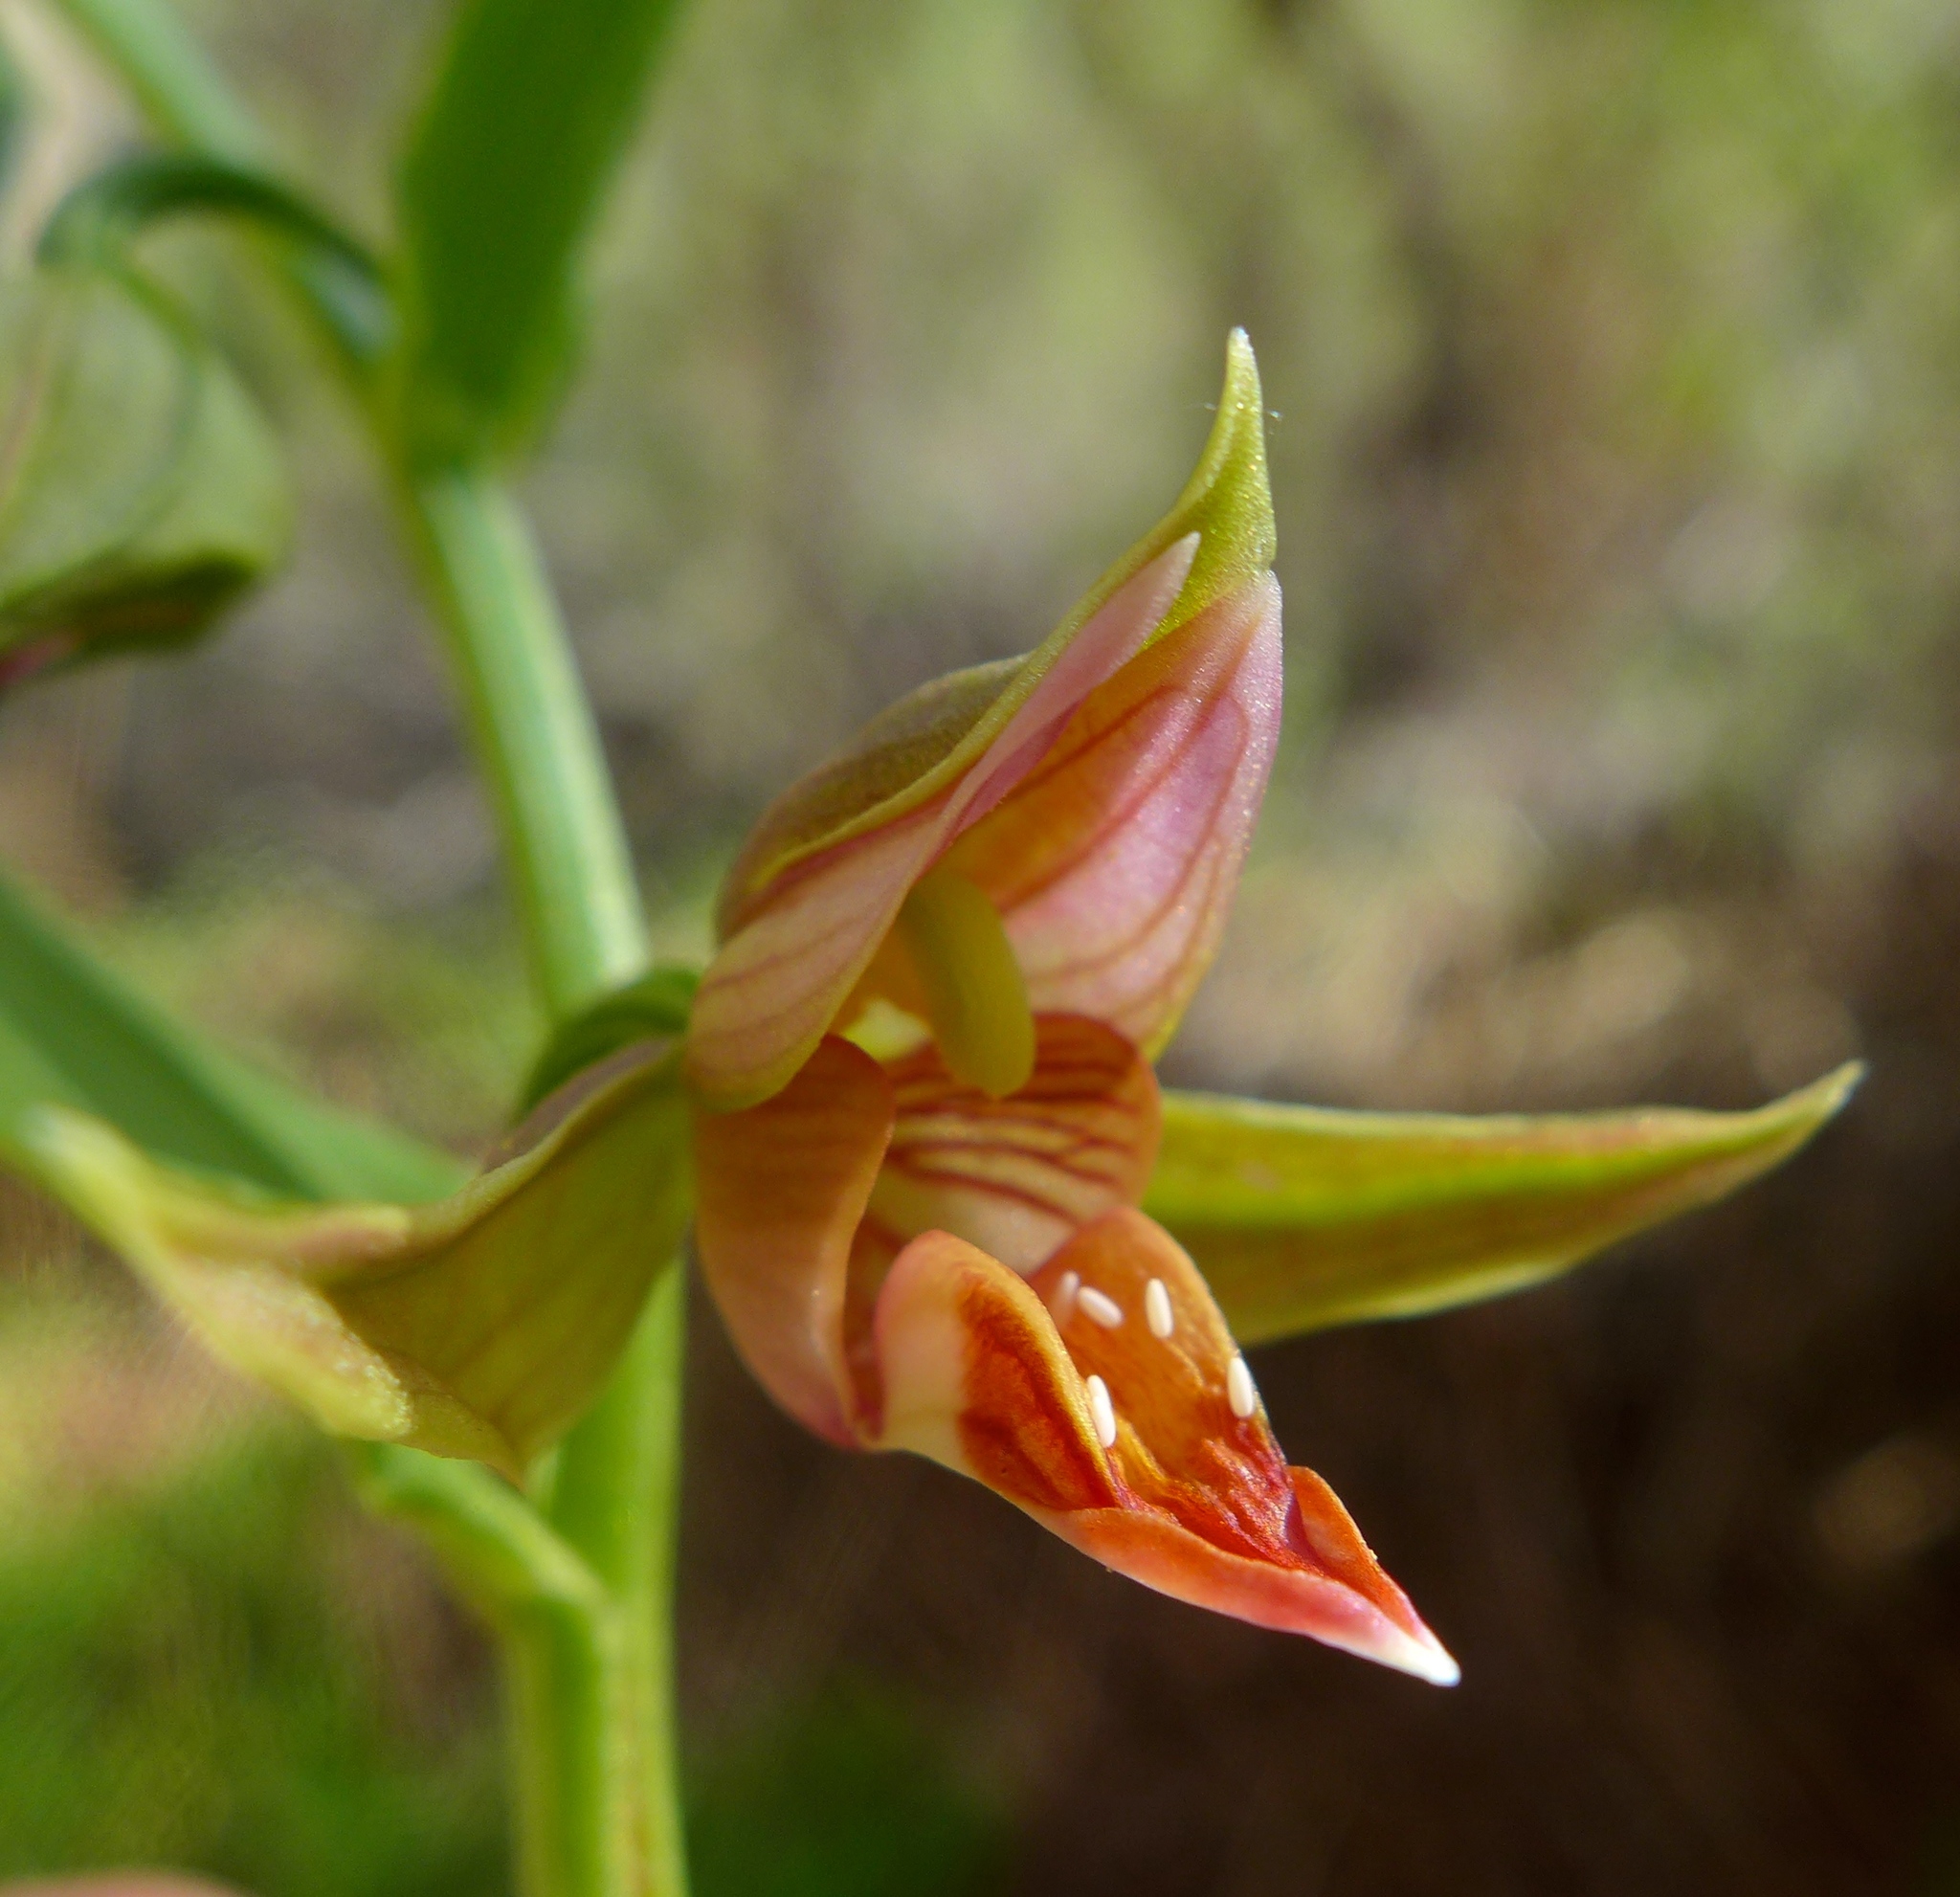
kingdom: Plantae
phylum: Tracheophyta
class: Liliopsida
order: Asparagales
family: Orchidaceae
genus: Epipactis
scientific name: Epipactis gigantea
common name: Chatterbox
